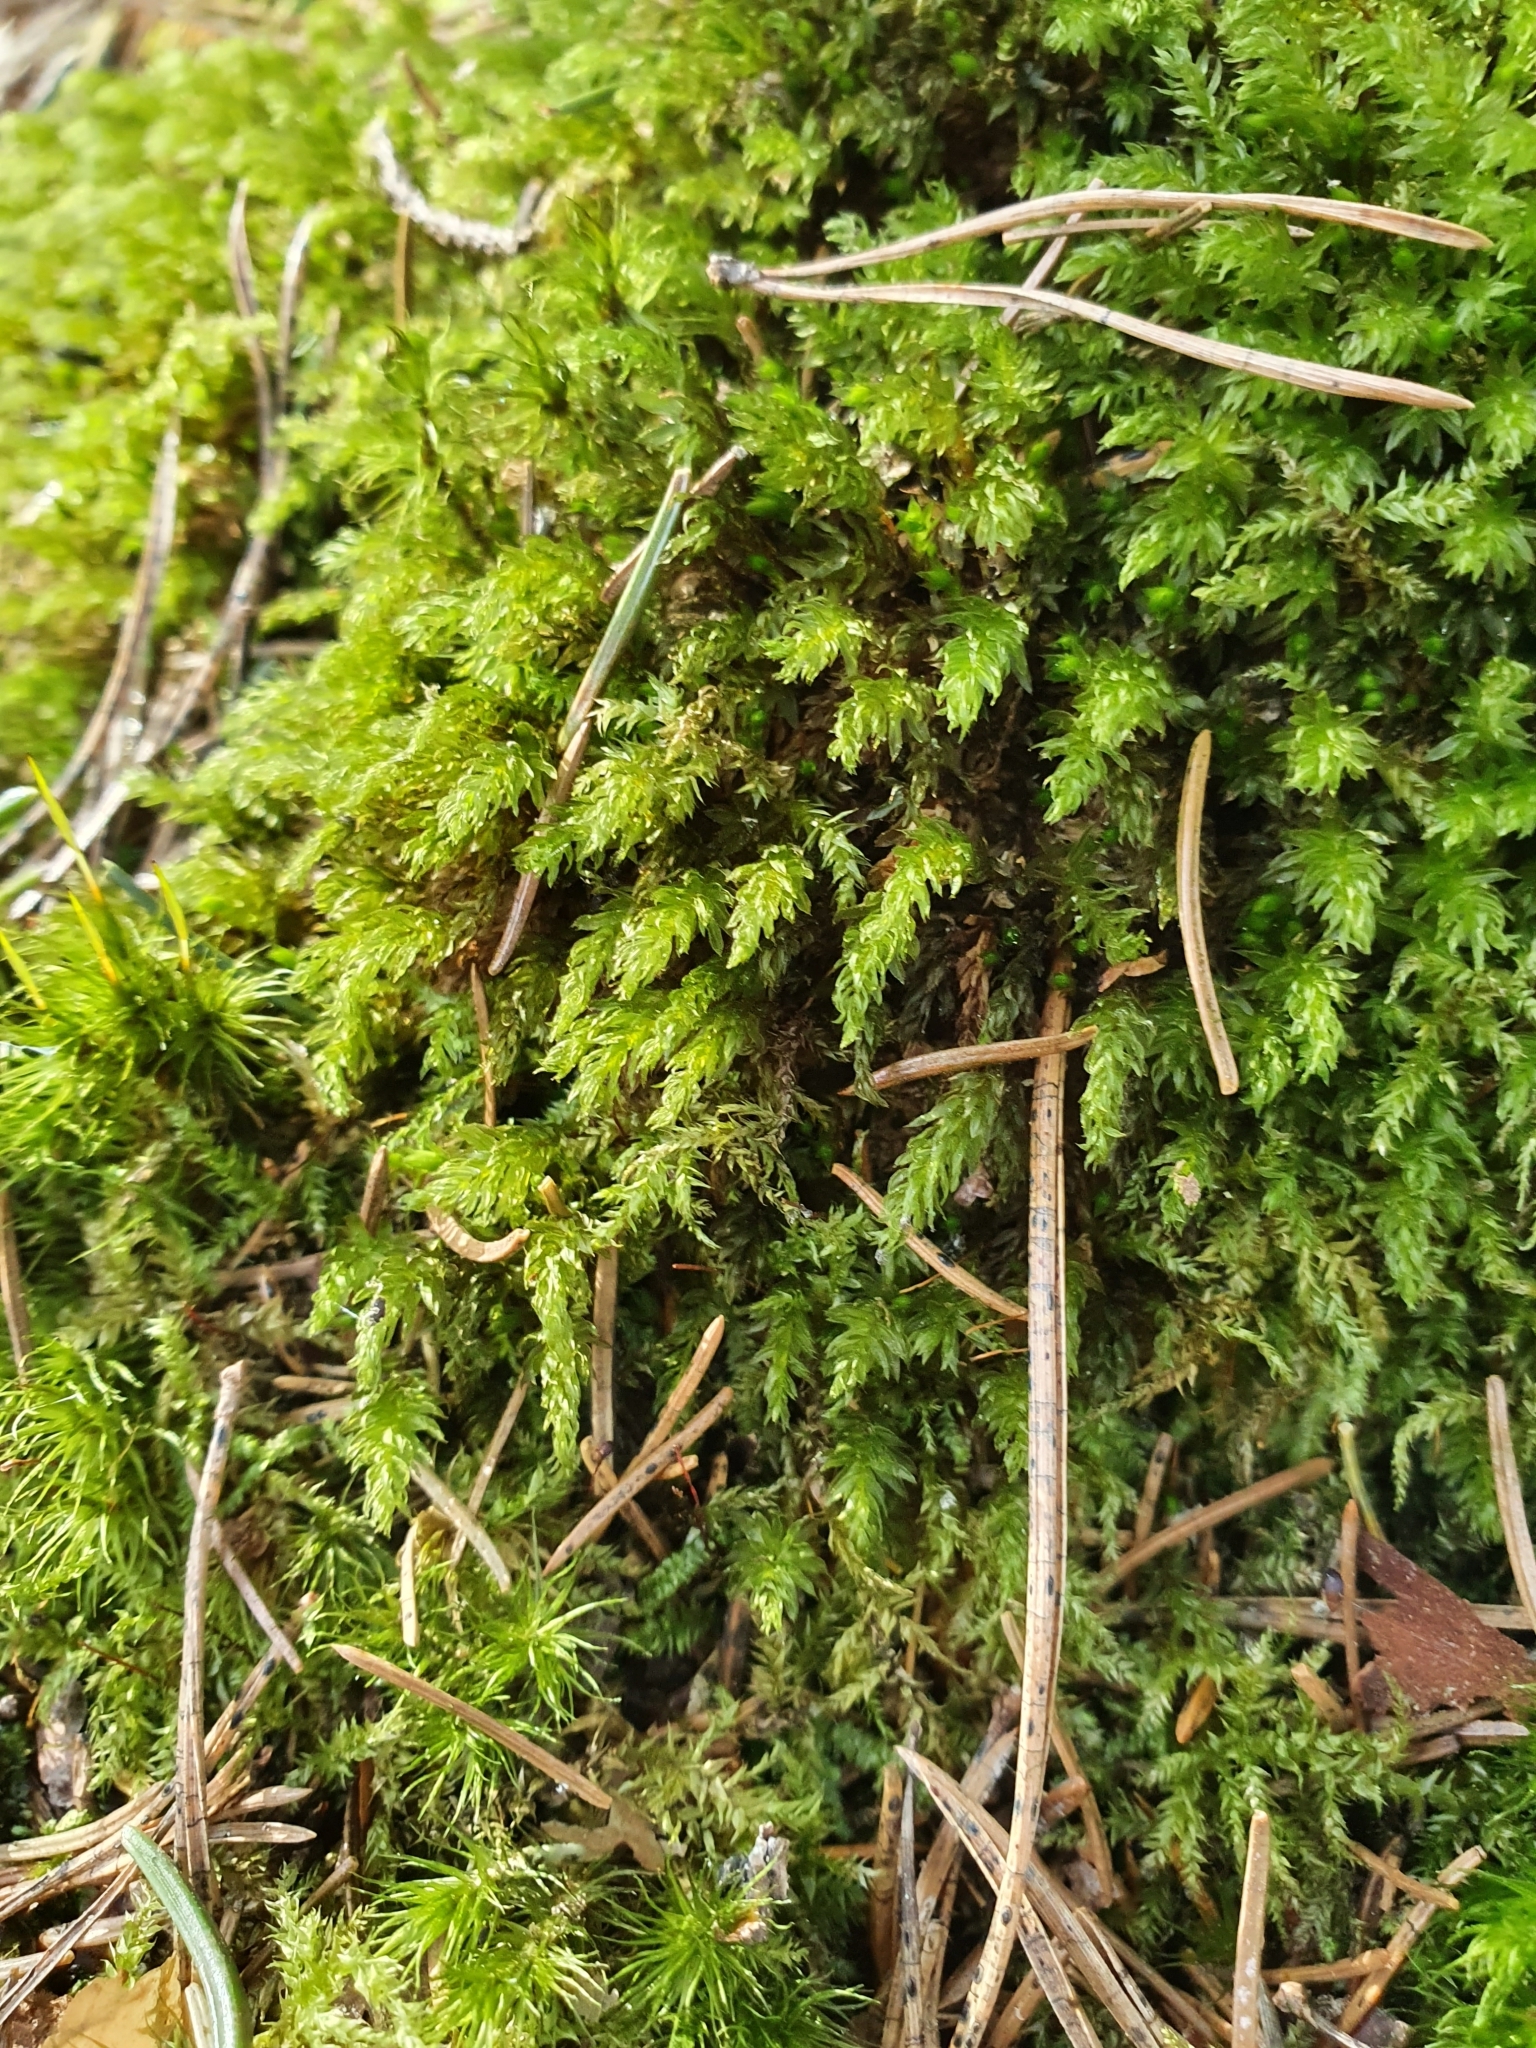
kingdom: Plantae
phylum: Bryophyta
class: Bryopsida
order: Bryales
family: Mniaceae
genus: Mnium
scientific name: Mnium hornum
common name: Swan's-neck leafy moss
